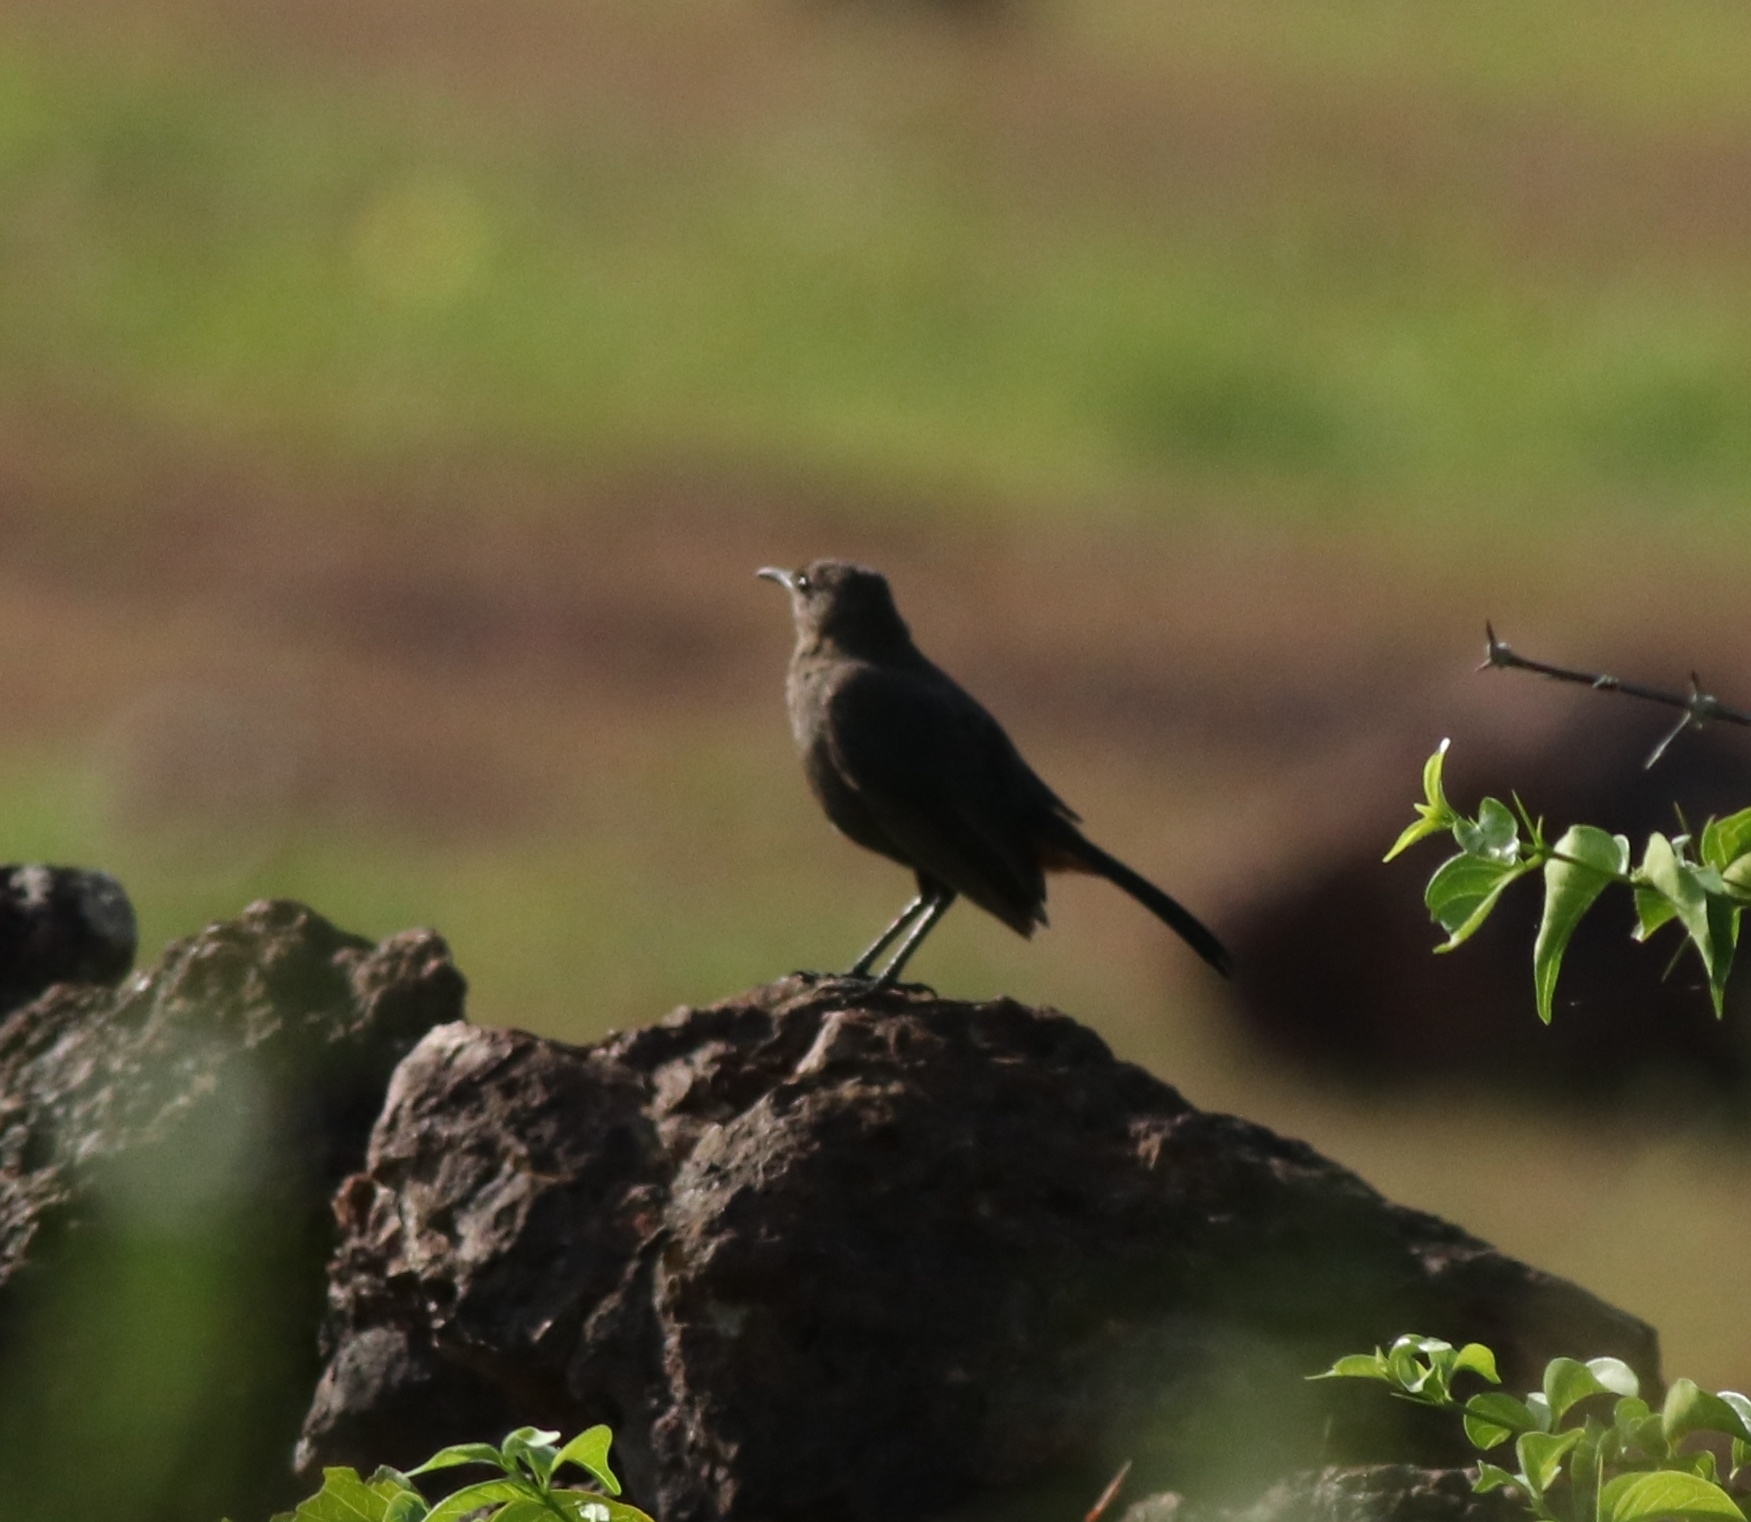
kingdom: Animalia
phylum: Chordata
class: Aves
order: Passeriformes
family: Muscicapidae
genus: Saxicoloides
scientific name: Saxicoloides fulicatus
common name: Indian robin
